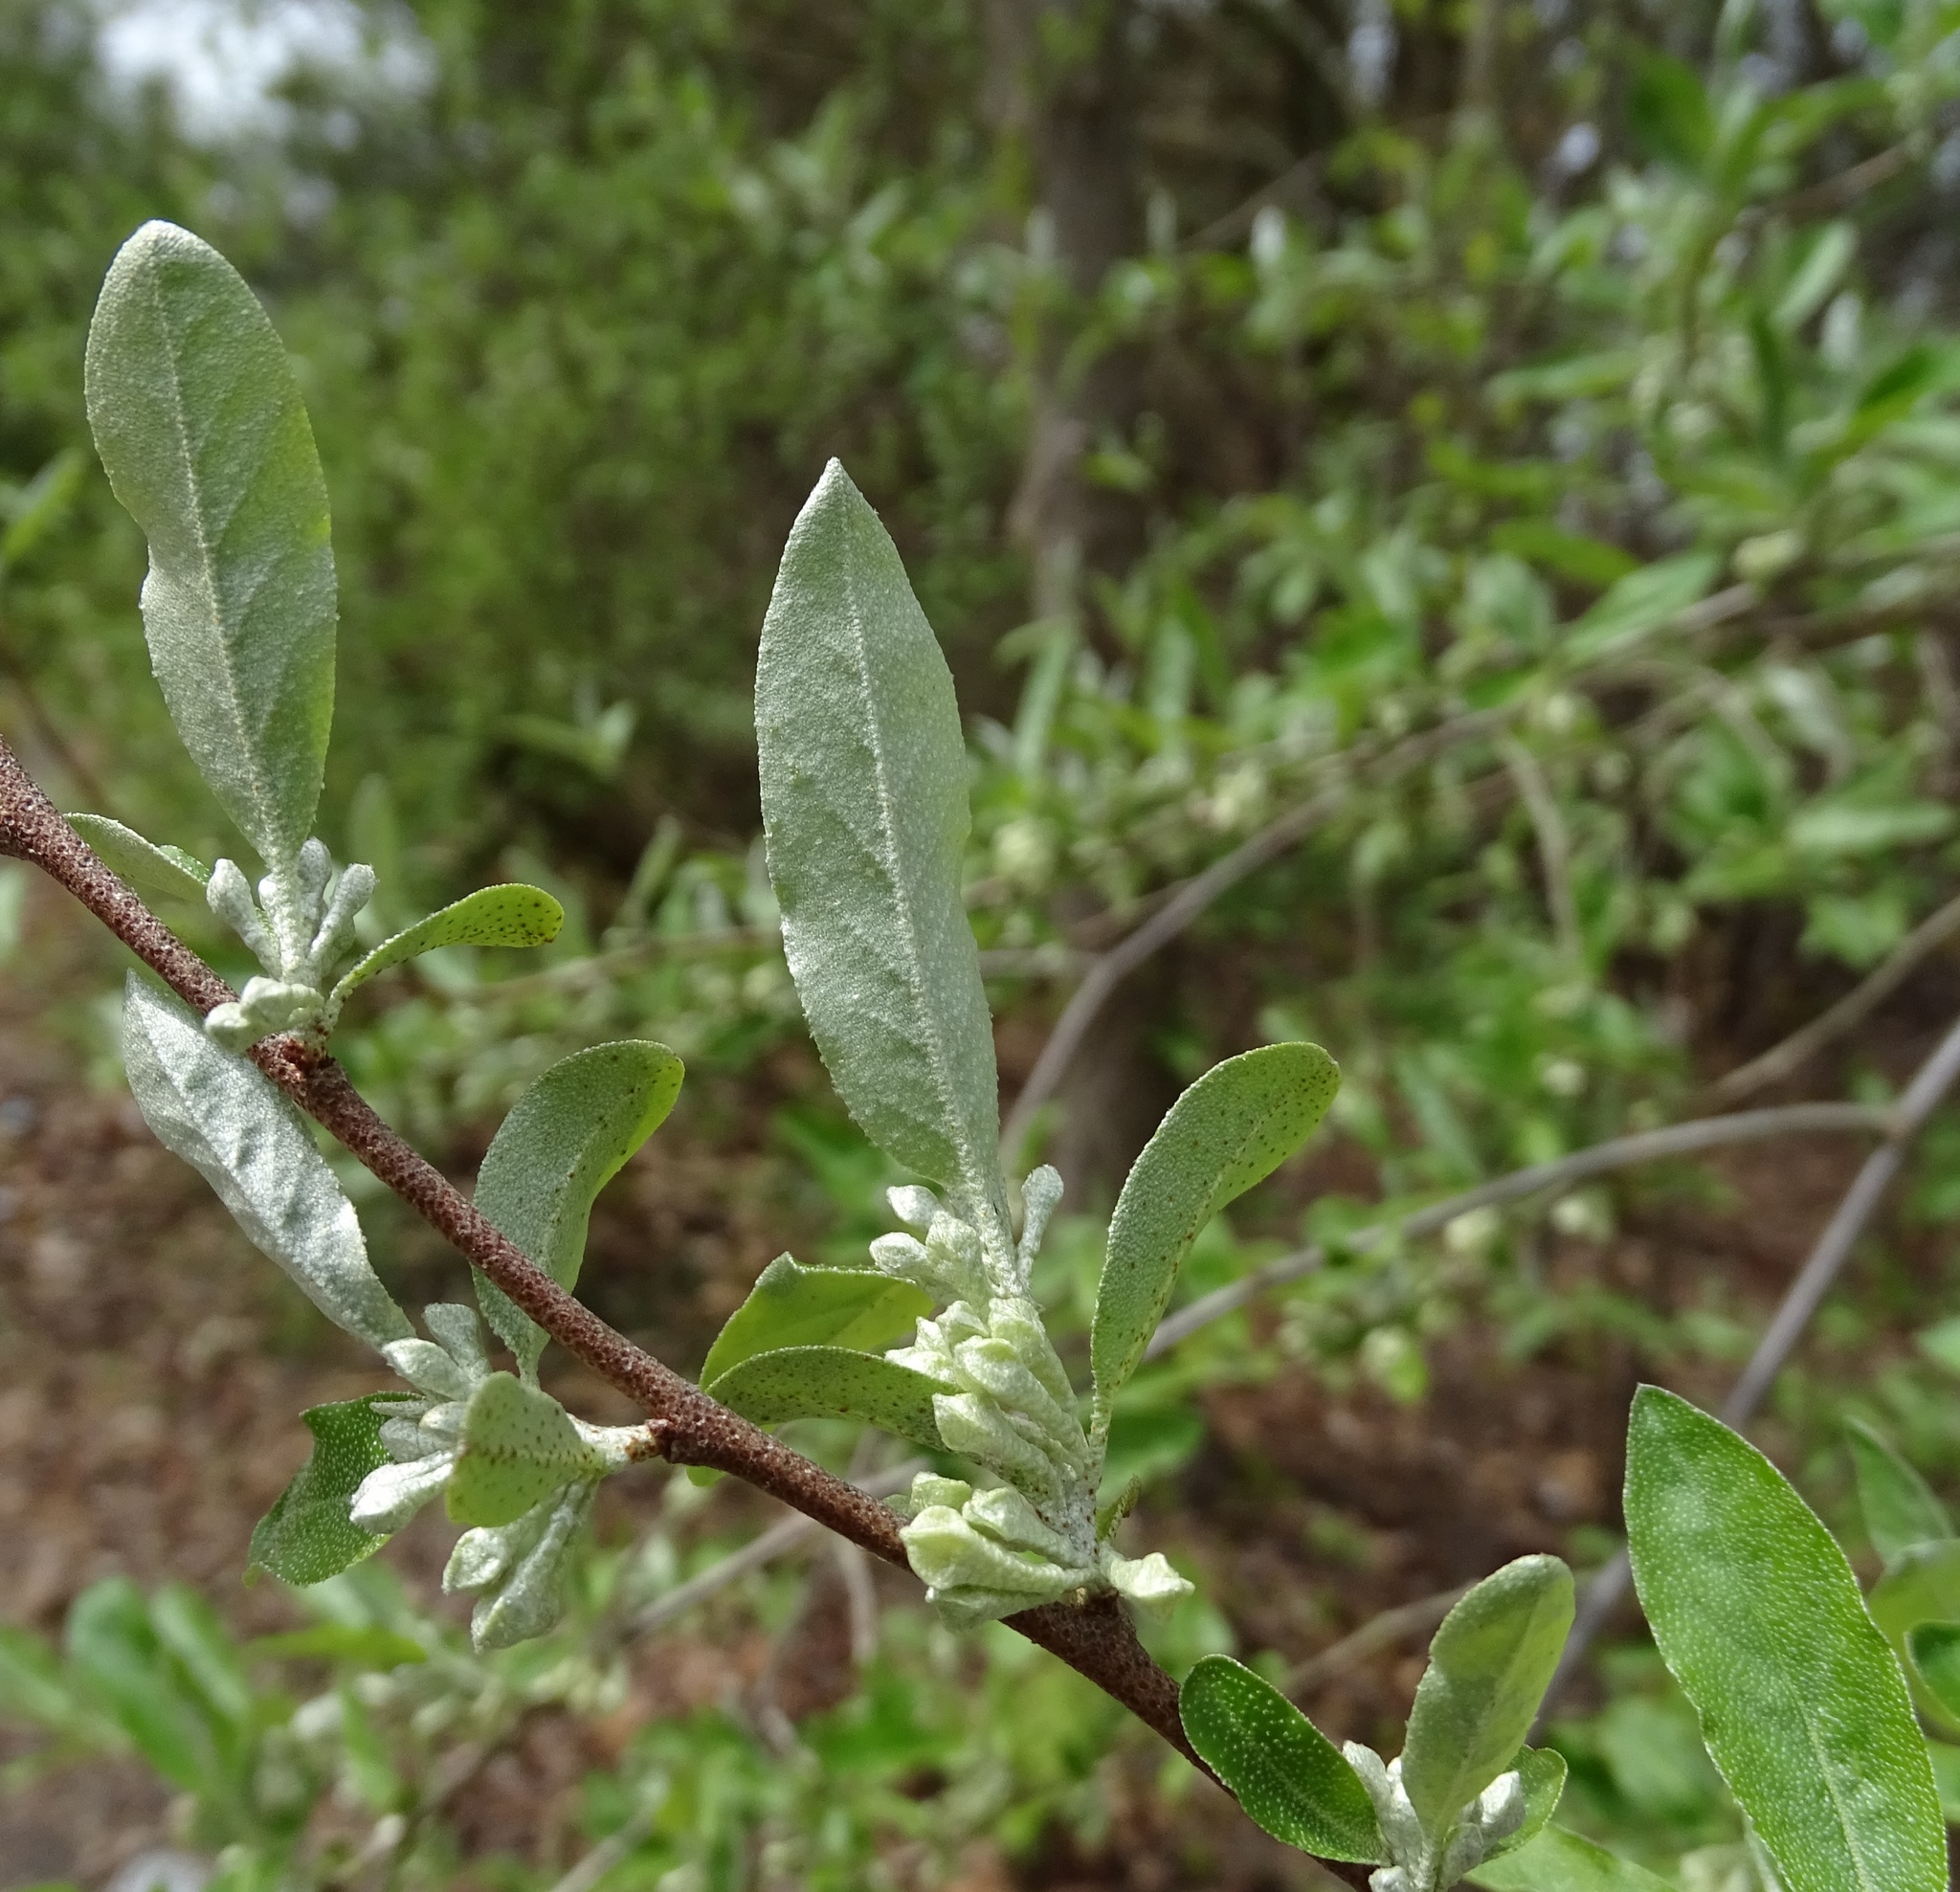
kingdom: Plantae
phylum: Tracheophyta
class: Magnoliopsida
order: Rosales
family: Elaeagnaceae
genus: Elaeagnus
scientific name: Elaeagnus umbellata
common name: Autumn olive
